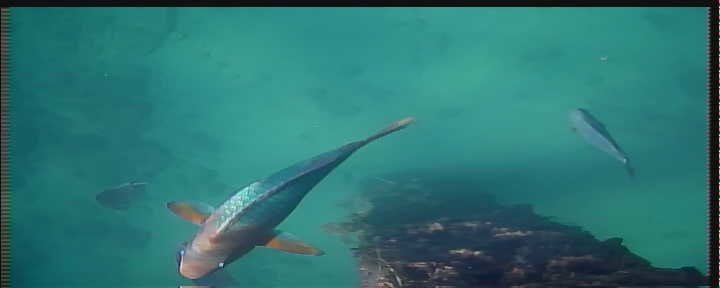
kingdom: Animalia
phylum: Chordata
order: Perciformes
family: Scaridae
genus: Scarus
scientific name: Scarus guacamaia
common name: Rainbow parrotfish
